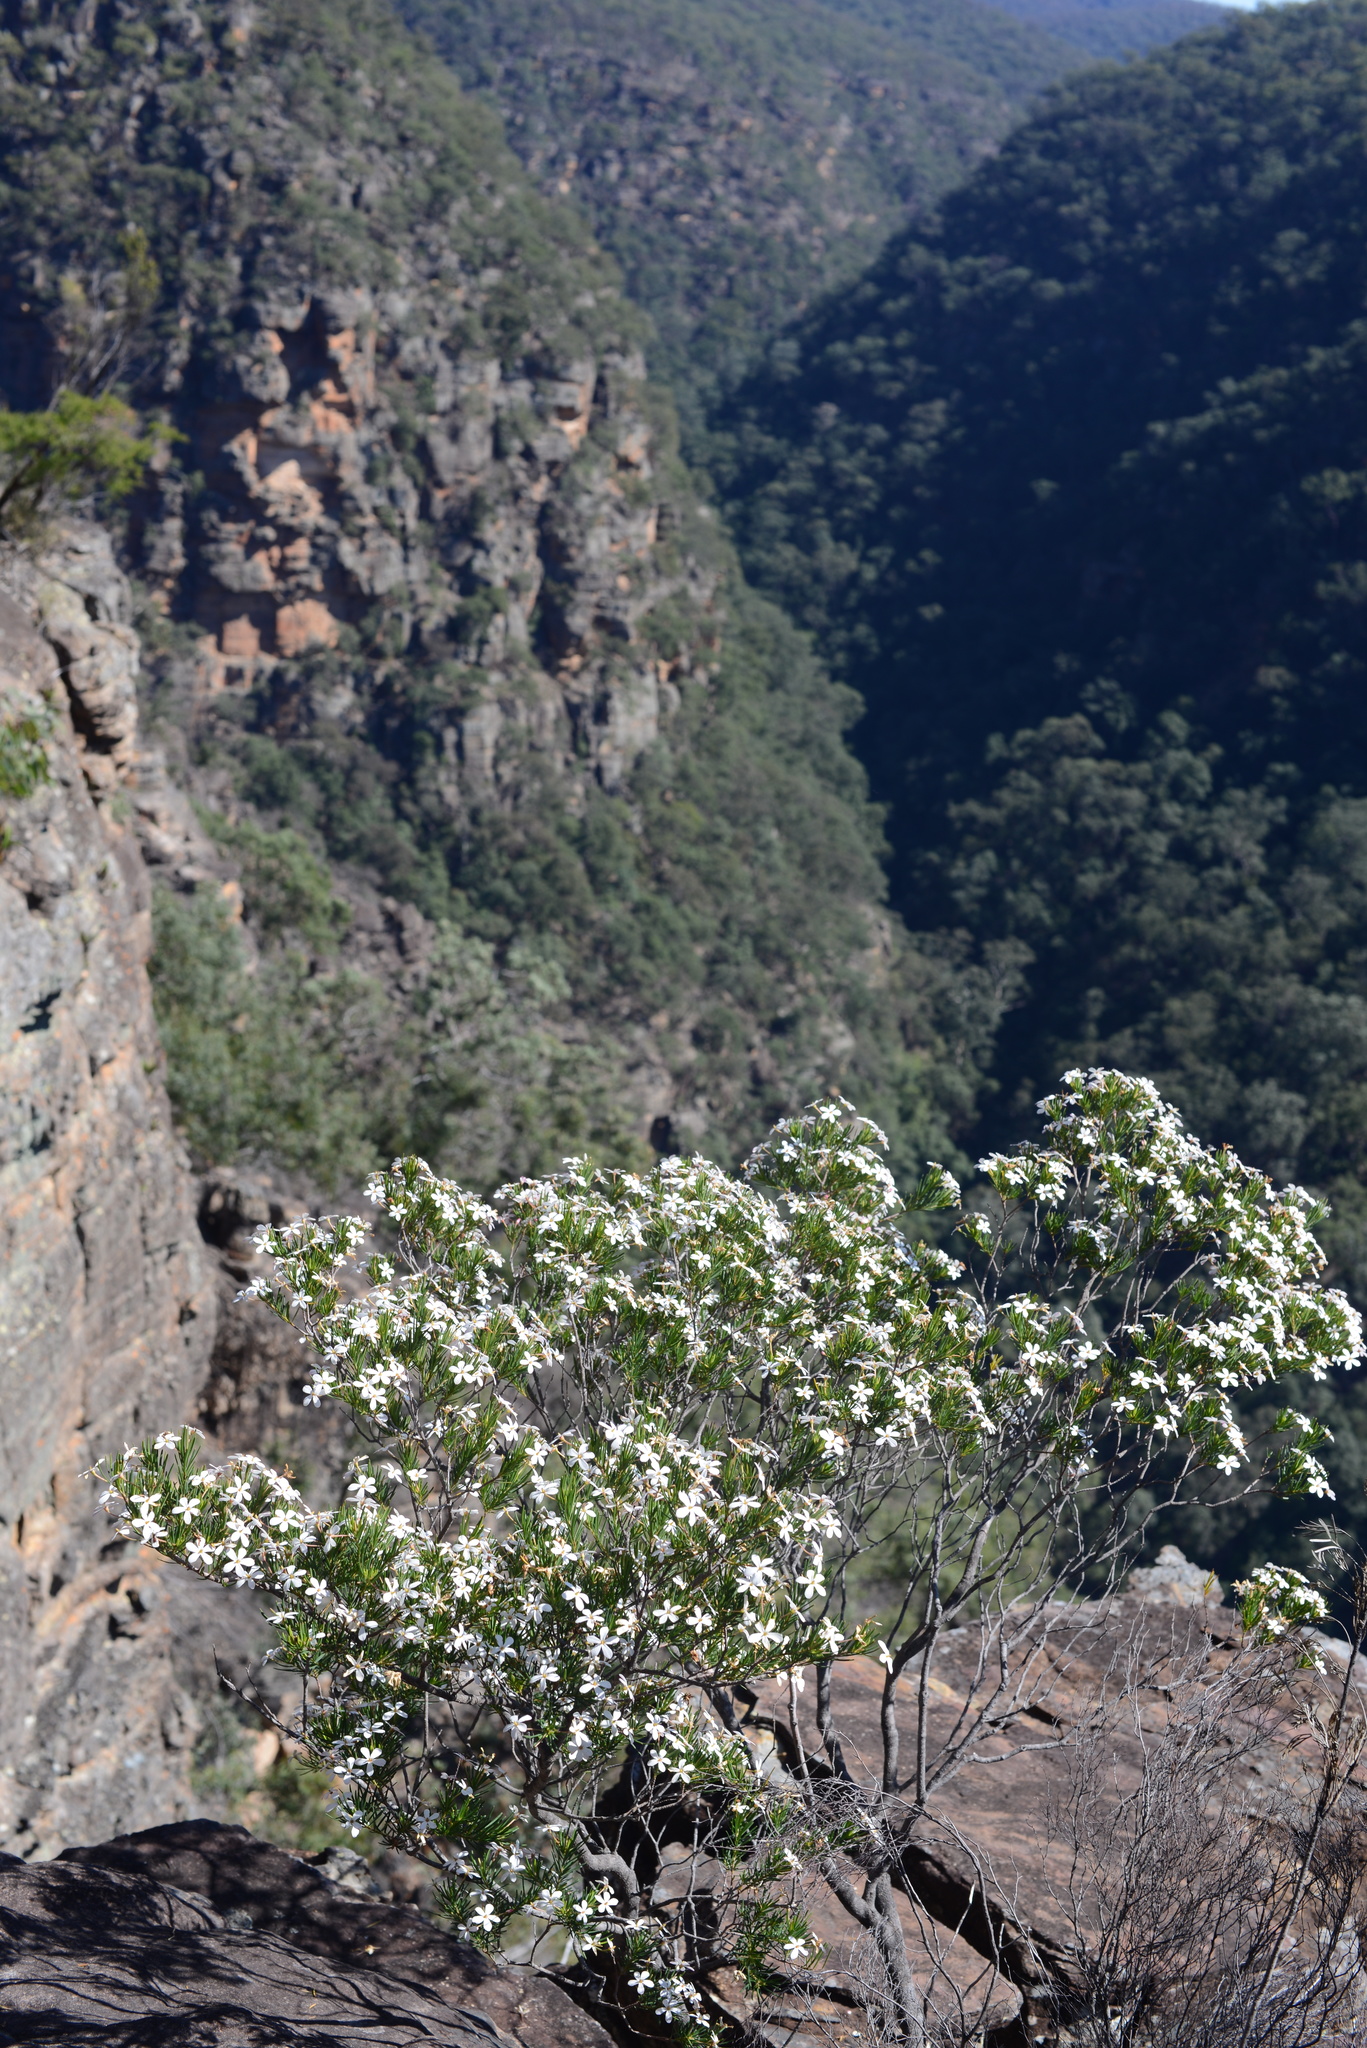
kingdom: Plantae
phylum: Tracheophyta
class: Magnoliopsida
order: Malpighiales
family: Euphorbiaceae
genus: Ricinocarpos
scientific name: Ricinocarpos pinifolius
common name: Weddingbush
